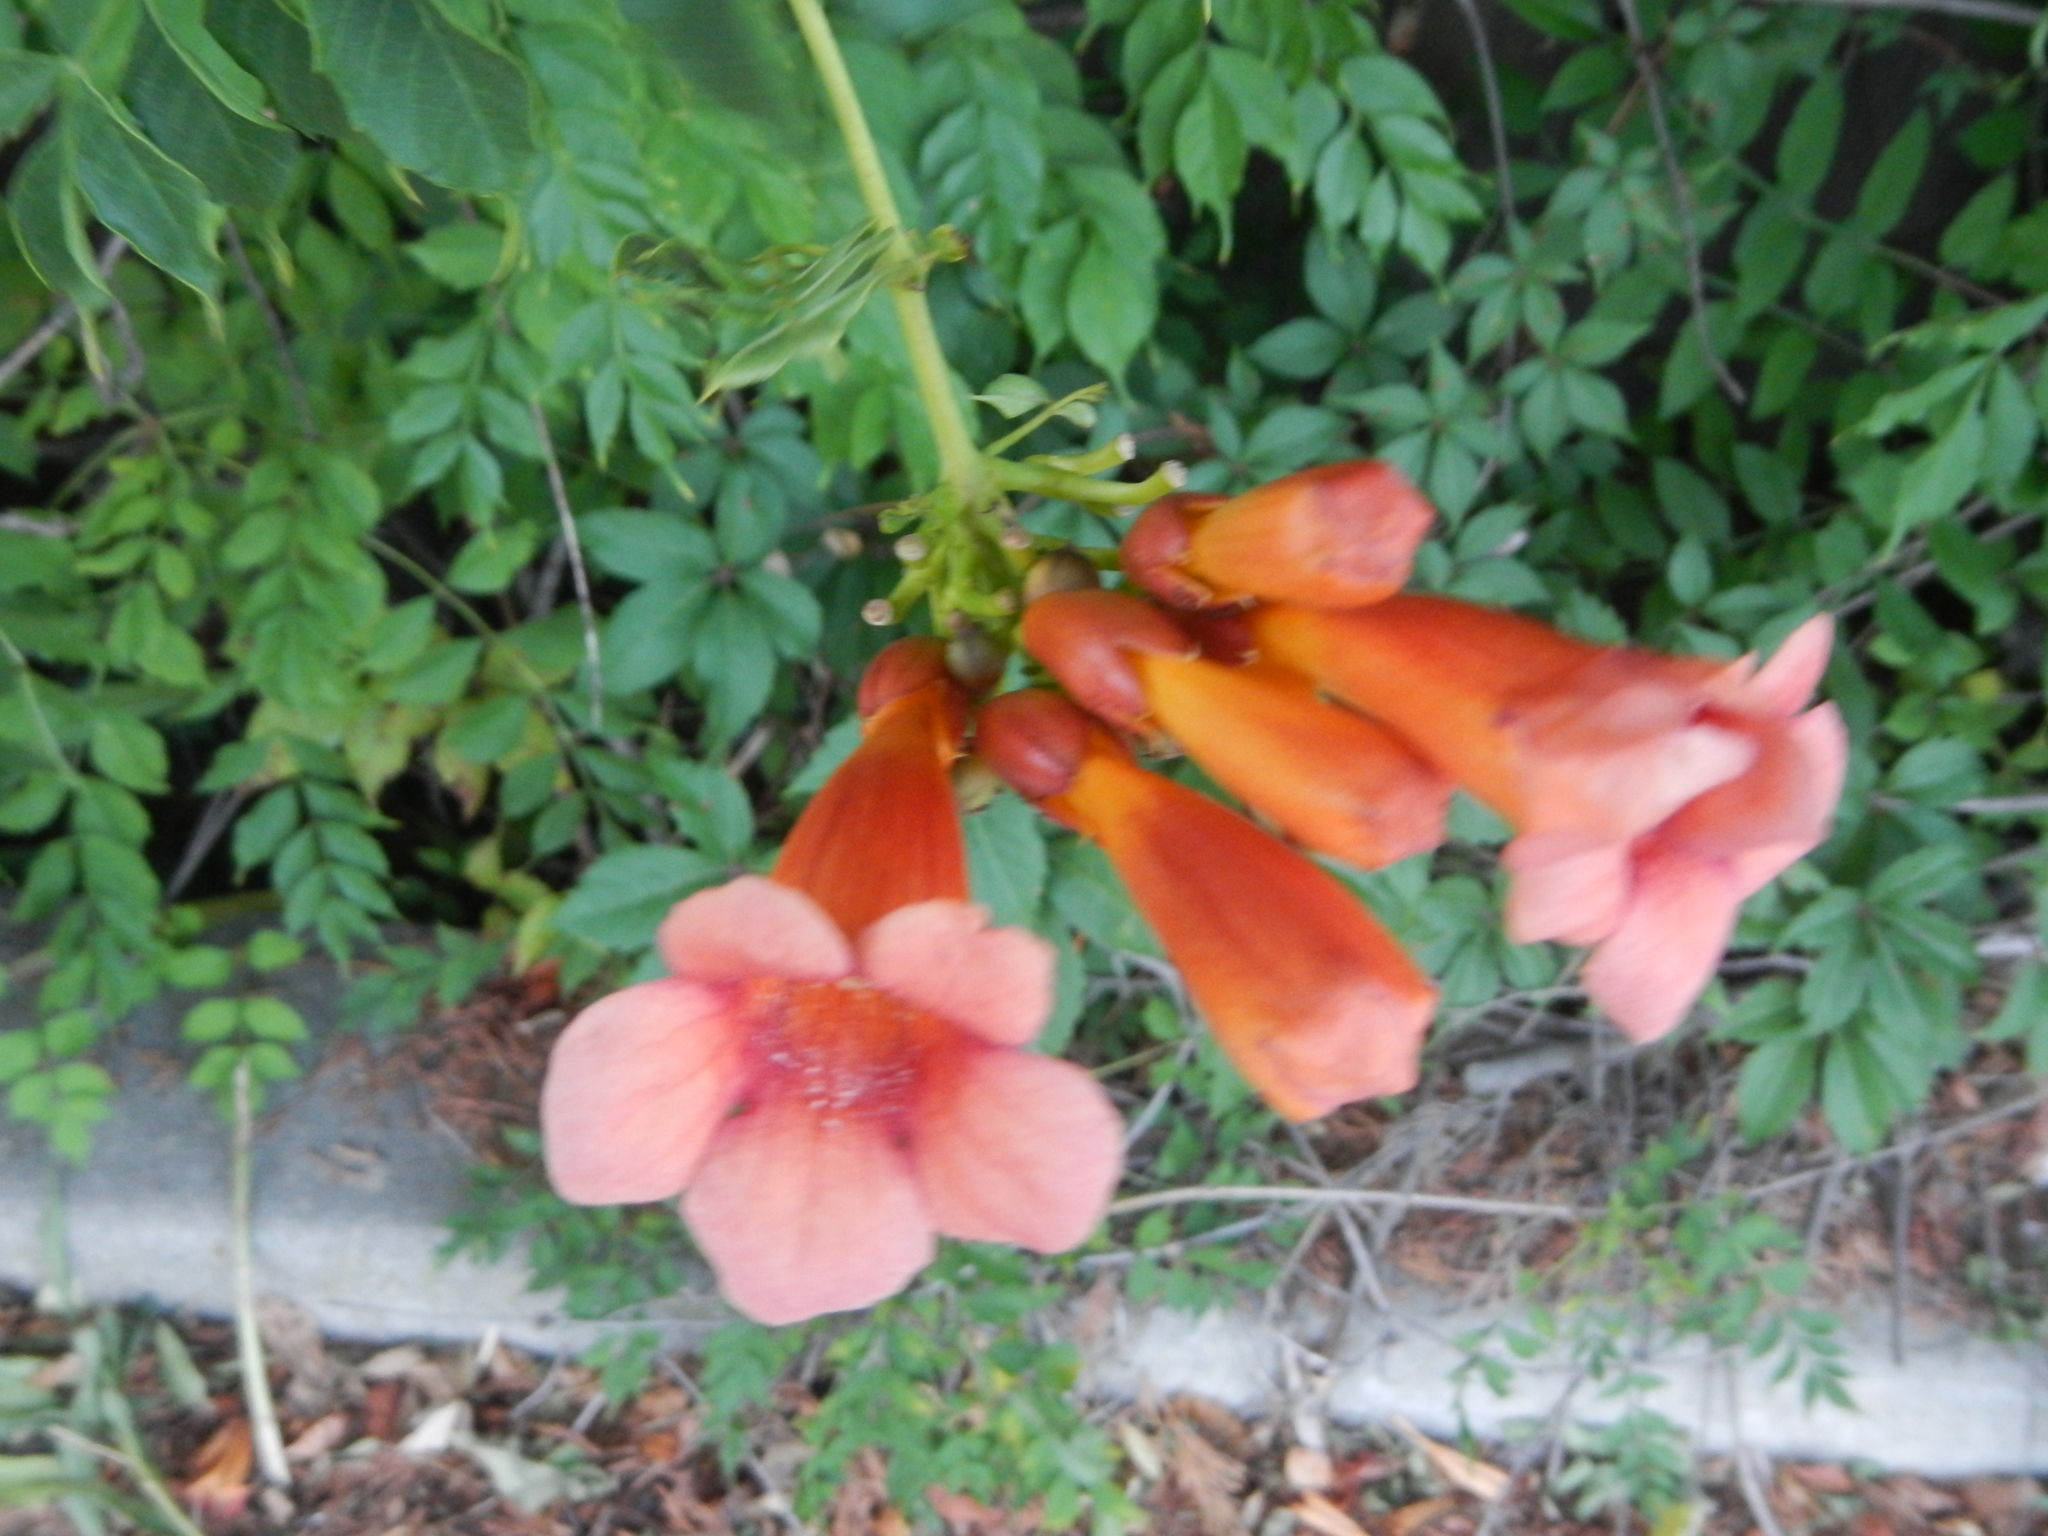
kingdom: Plantae
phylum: Tracheophyta
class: Magnoliopsida
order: Lamiales
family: Bignoniaceae
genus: Campsis
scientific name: Campsis radicans
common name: Trumpet-creeper
